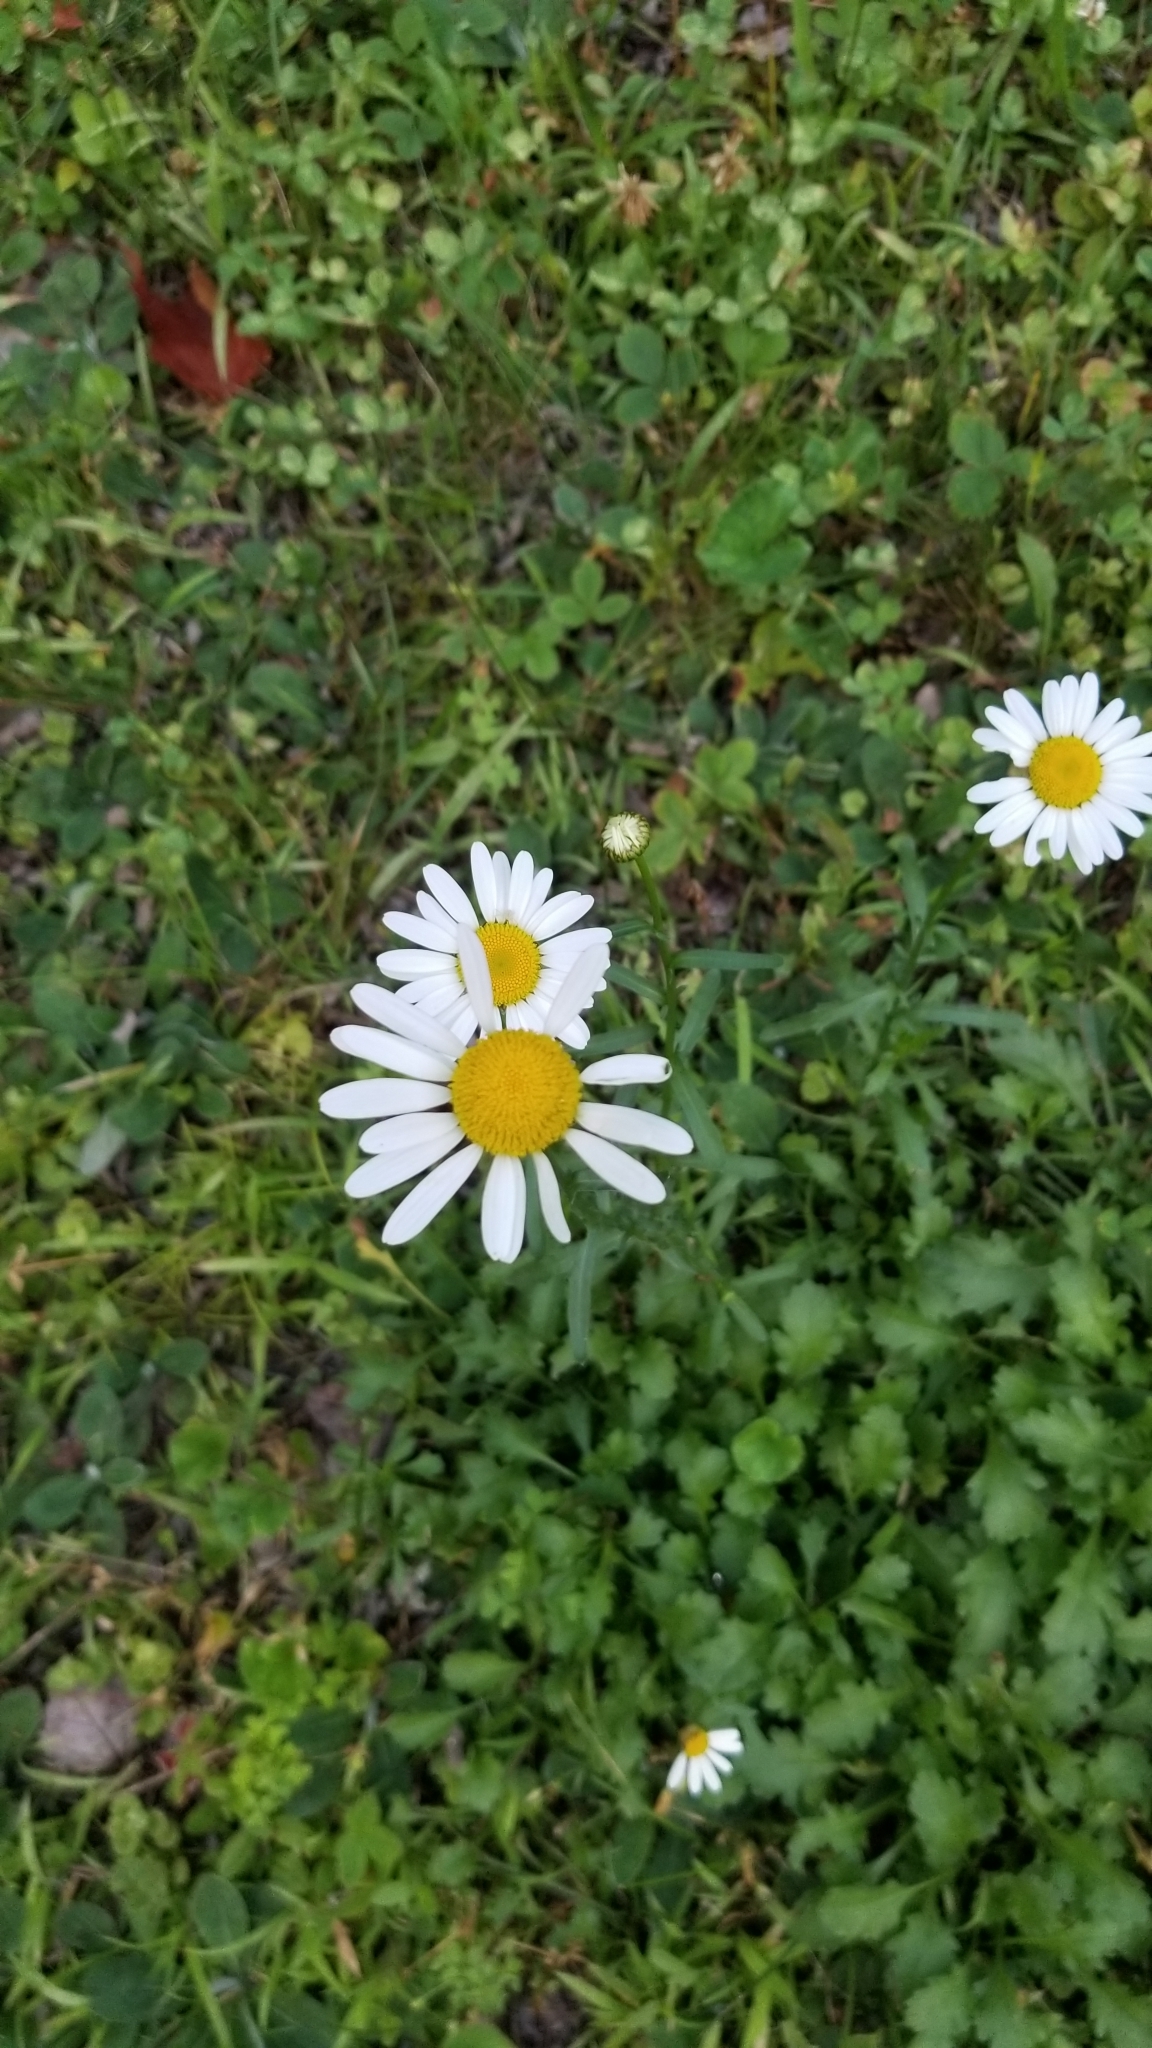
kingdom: Plantae
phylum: Tracheophyta
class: Magnoliopsida
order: Asterales
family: Asteraceae
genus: Leucanthemum
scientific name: Leucanthemum vulgare
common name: Oxeye daisy
